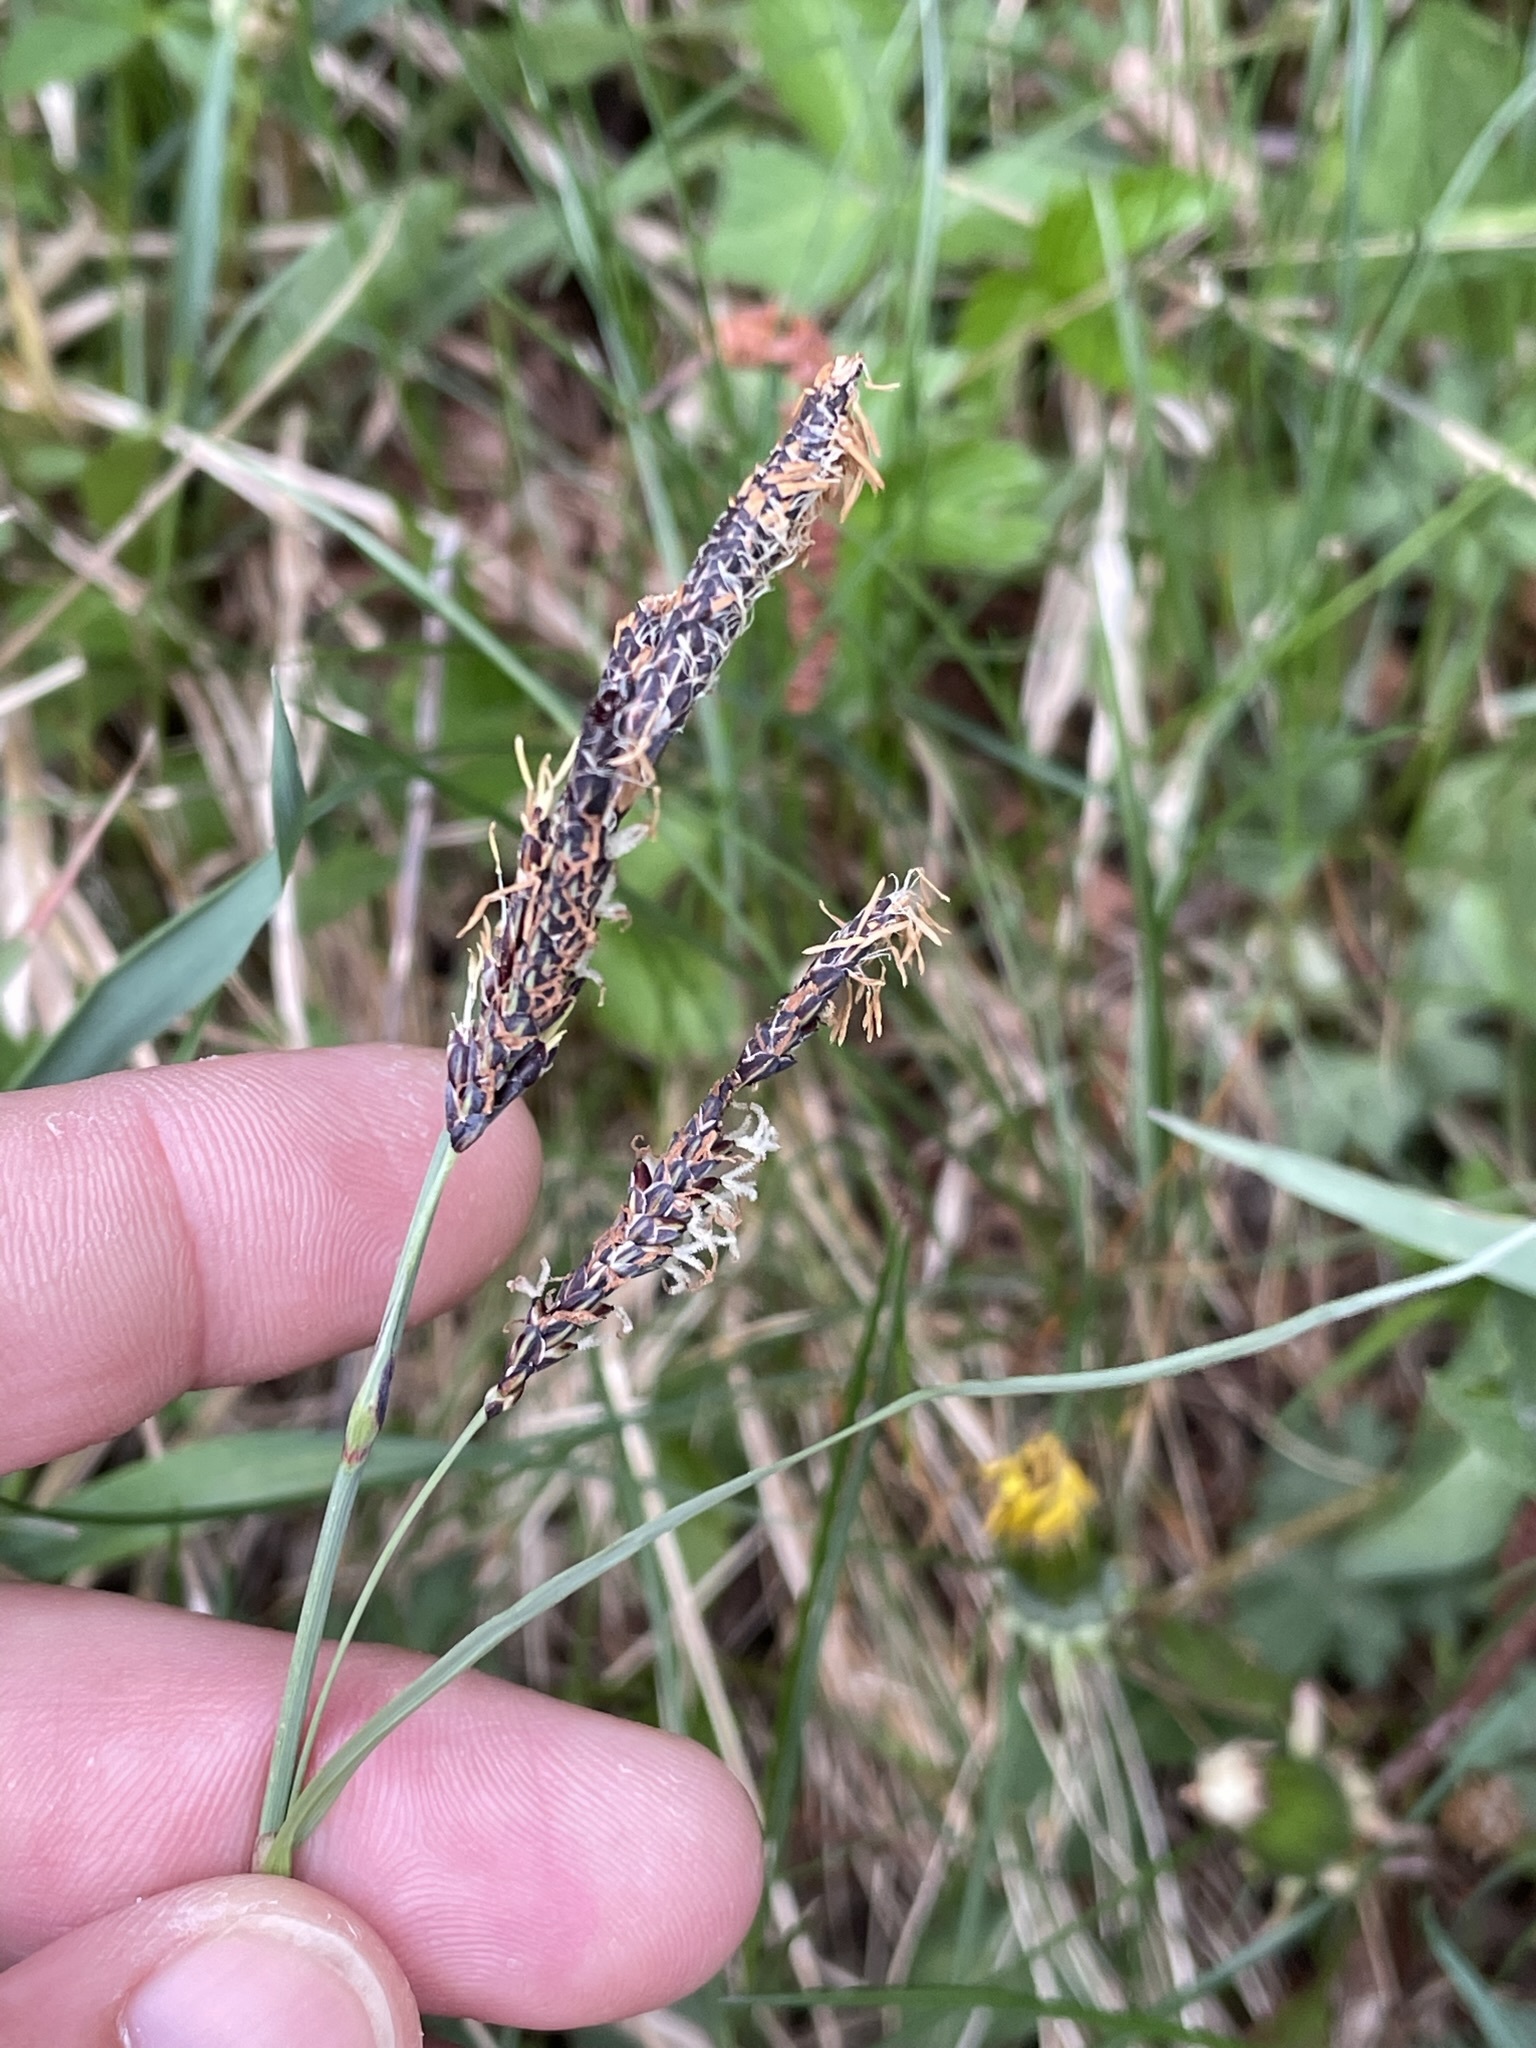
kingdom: Plantae
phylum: Tracheophyta
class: Liliopsida
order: Poales
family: Cyperaceae
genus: Carex
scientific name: Carex flacca
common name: Glaucous sedge
